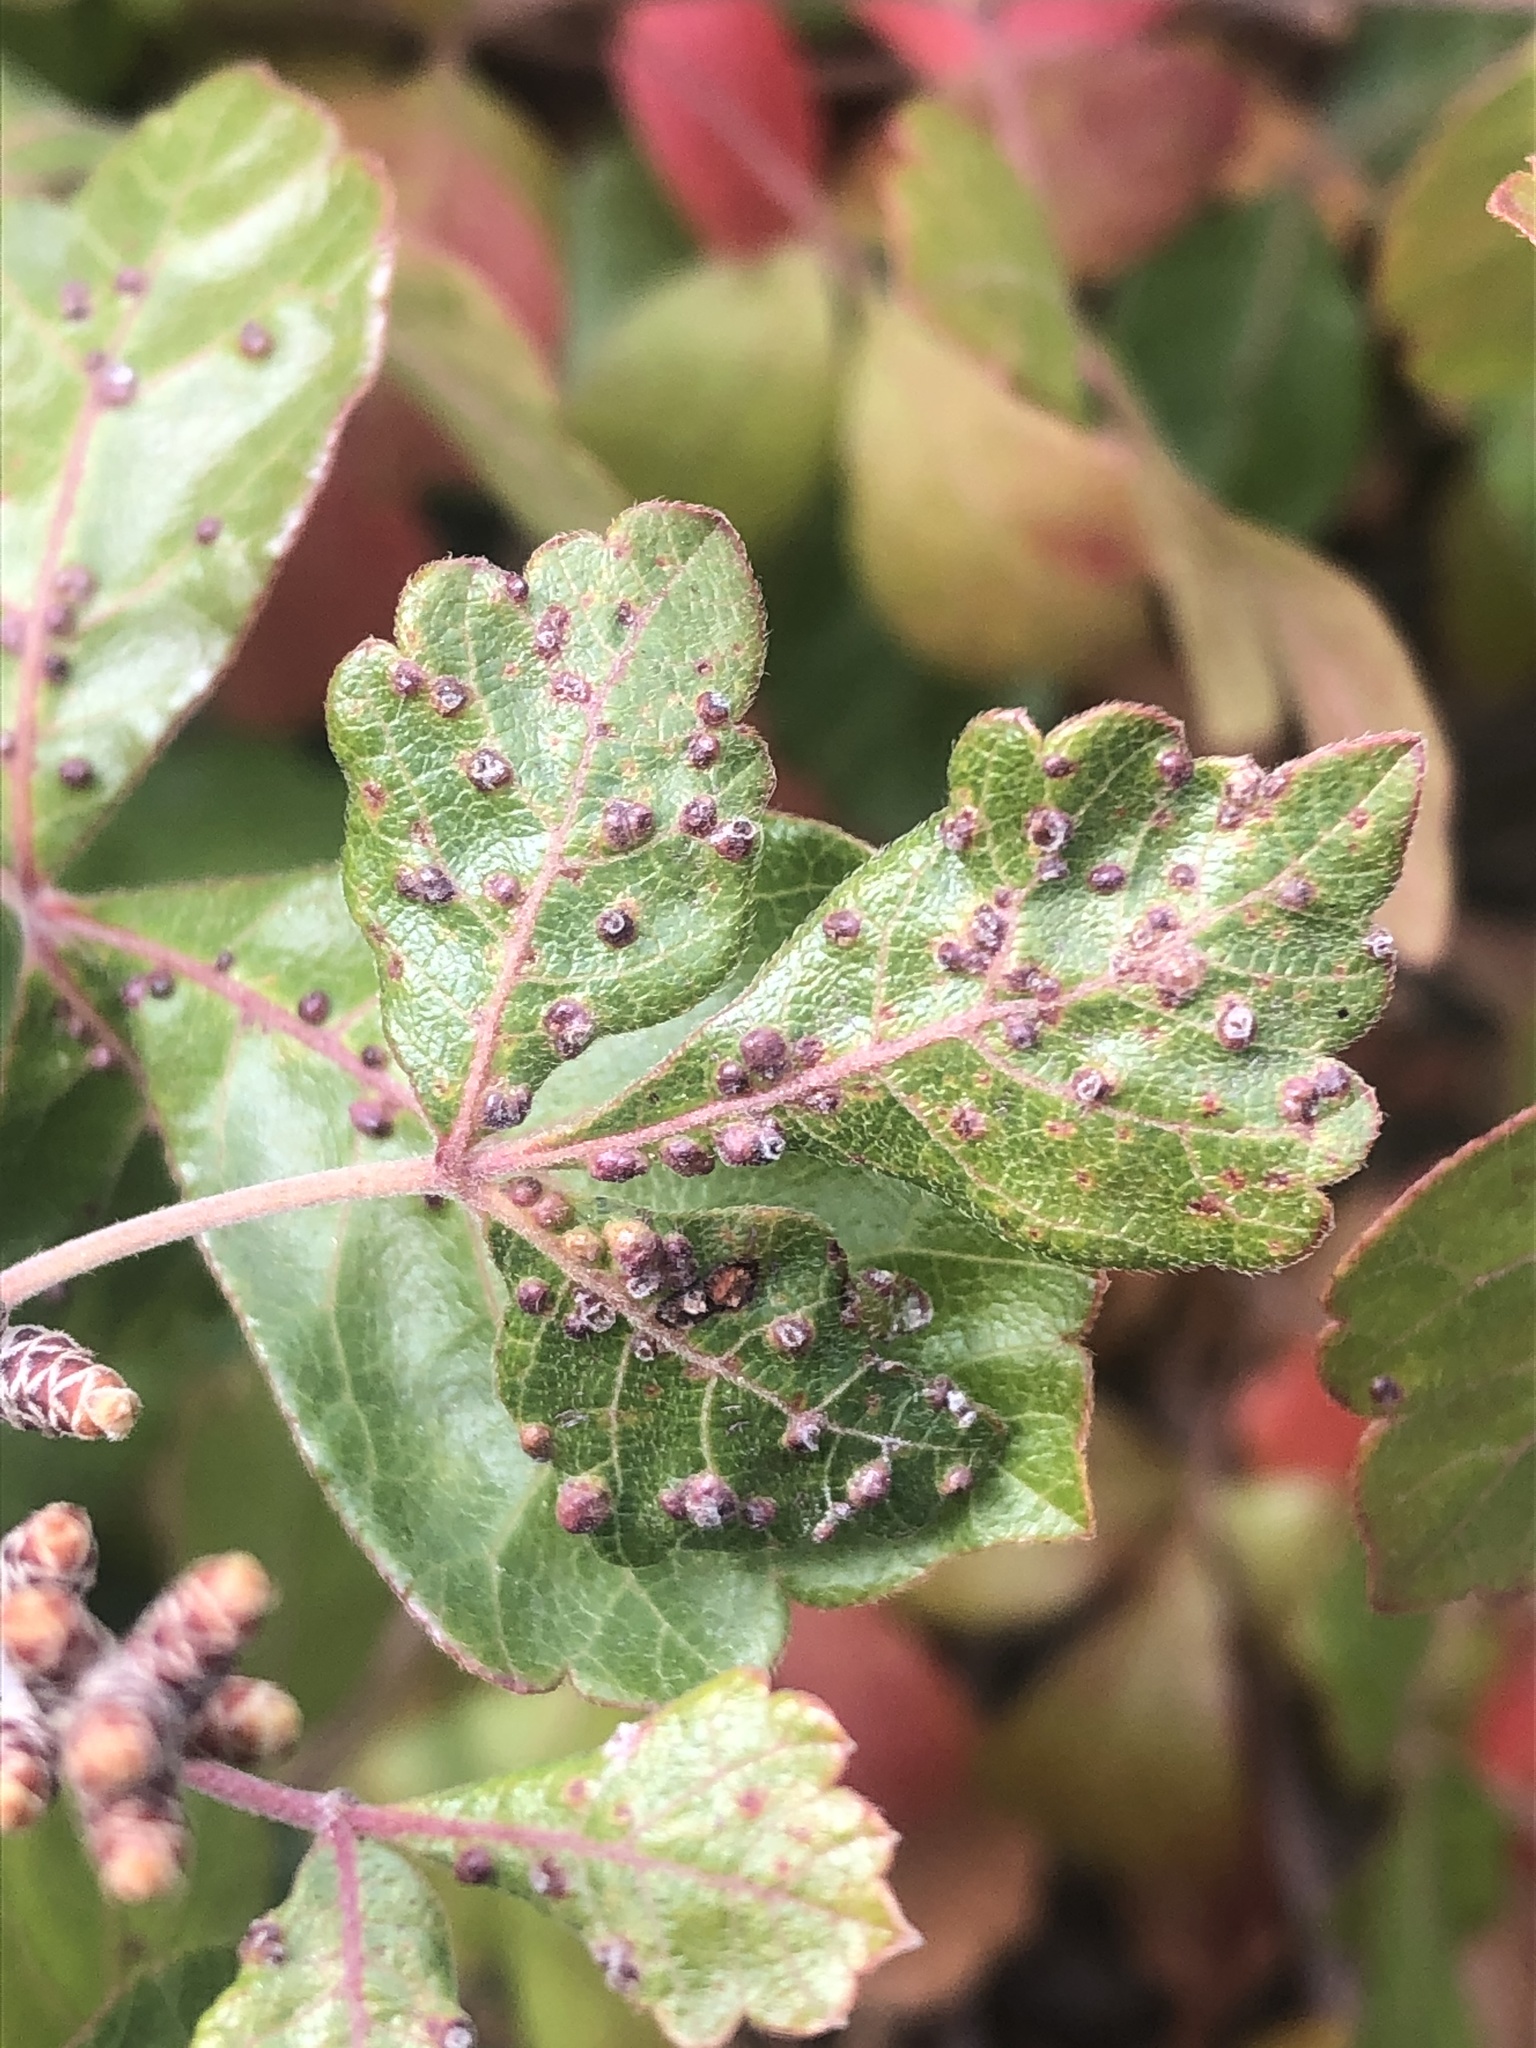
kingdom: Animalia
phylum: Arthropoda
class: Arachnida
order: Trombidiformes
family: Eriophyidae
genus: Aculops
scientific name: Aculops
